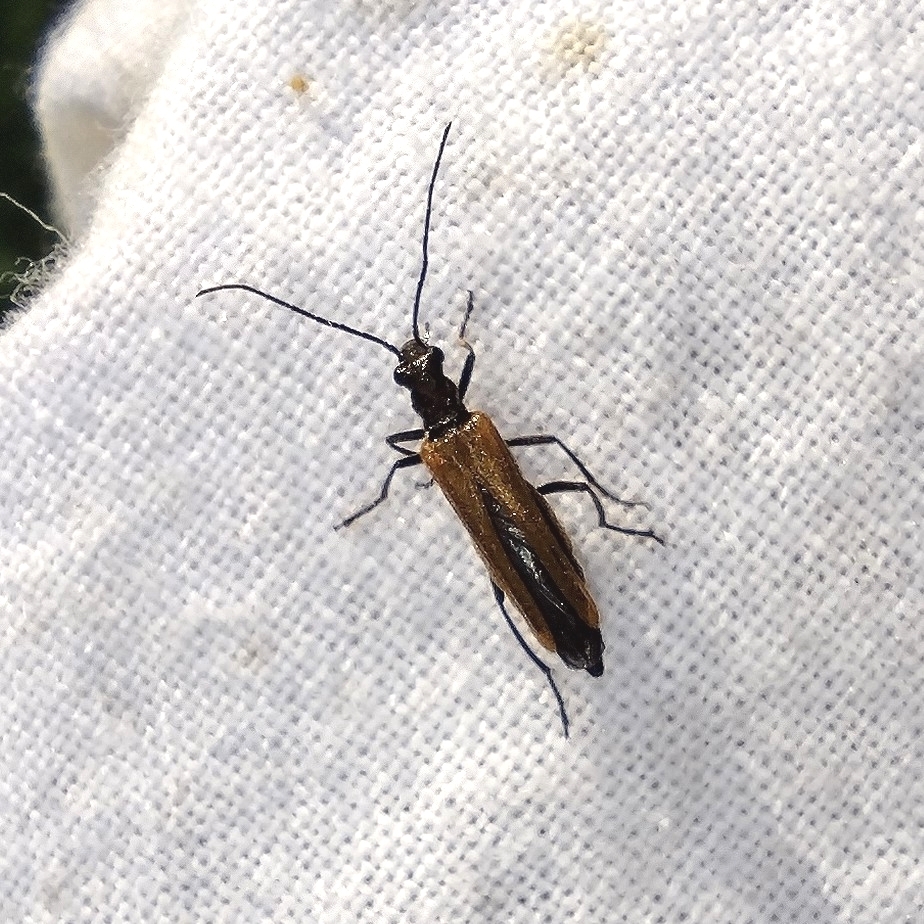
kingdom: Animalia
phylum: Arthropoda
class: Insecta
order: Coleoptera
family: Oedemeridae
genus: Oedemera
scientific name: Oedemera femorata
